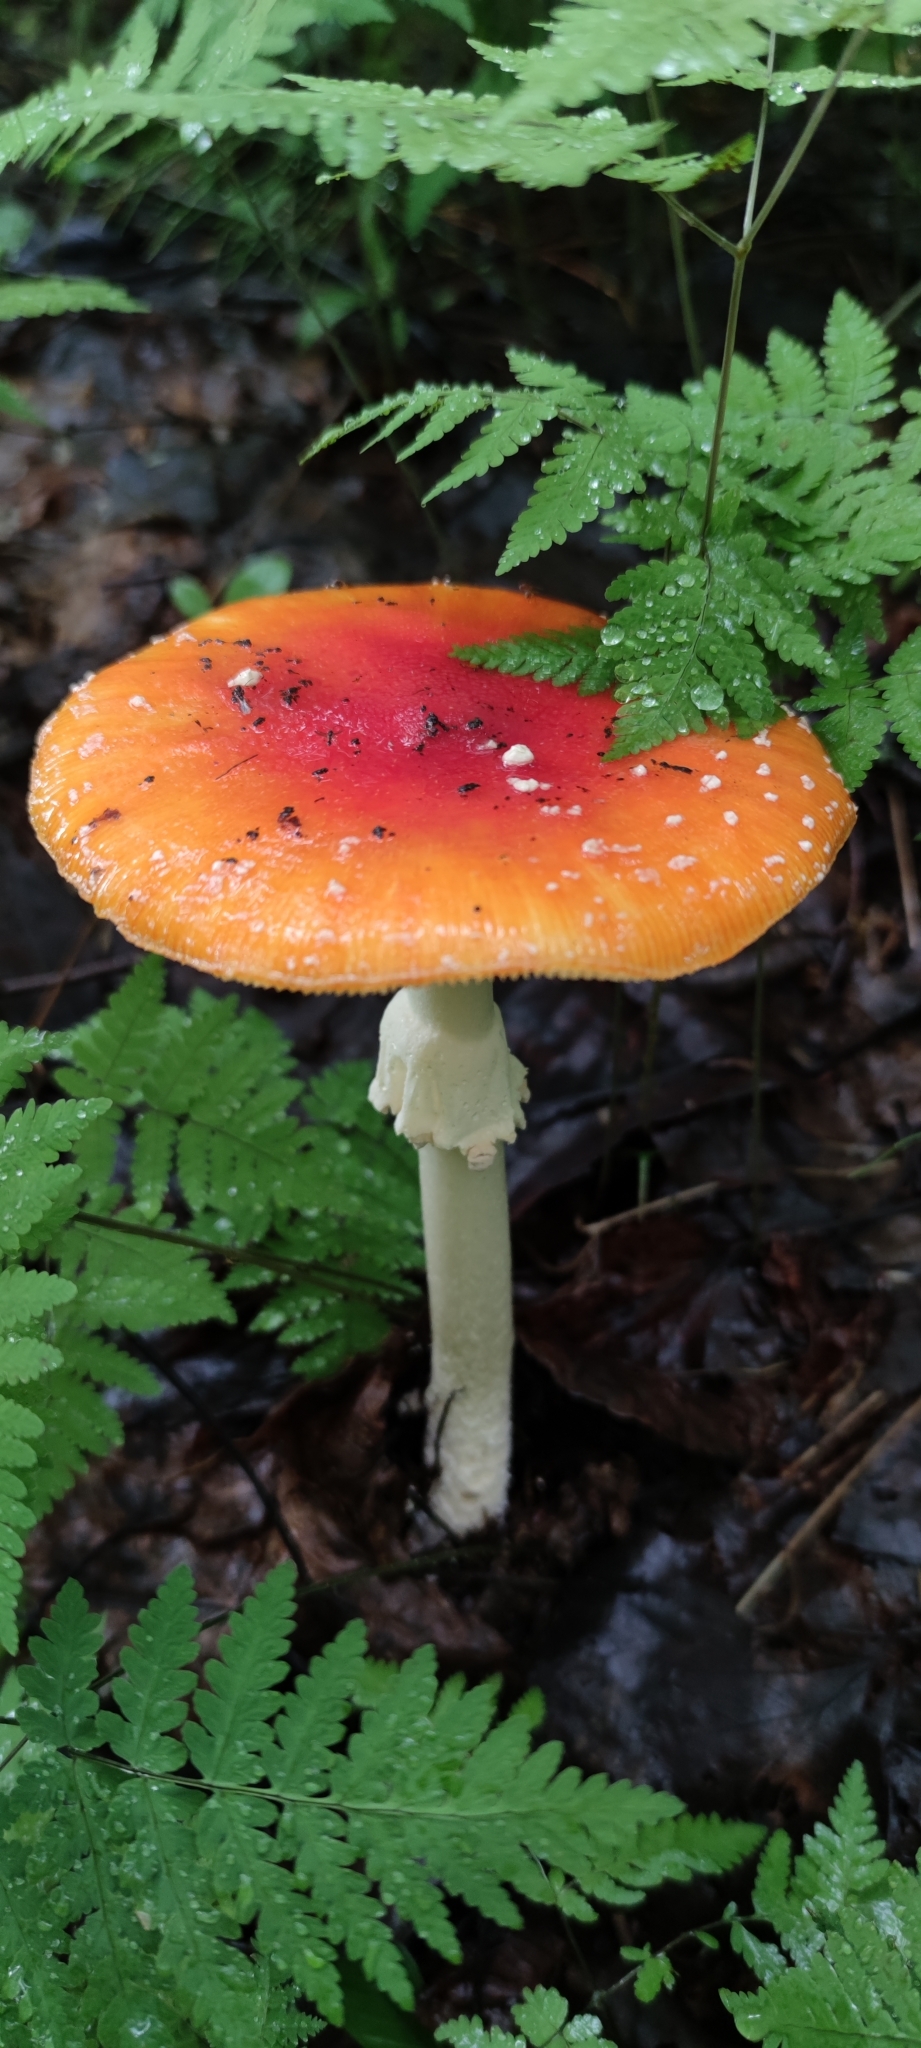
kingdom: Fungi
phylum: Basidiomycota
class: Agaricomycetes
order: Agaricales
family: Amanitaceae
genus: Amanita
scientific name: Amanita muscaria
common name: Fly agaric
